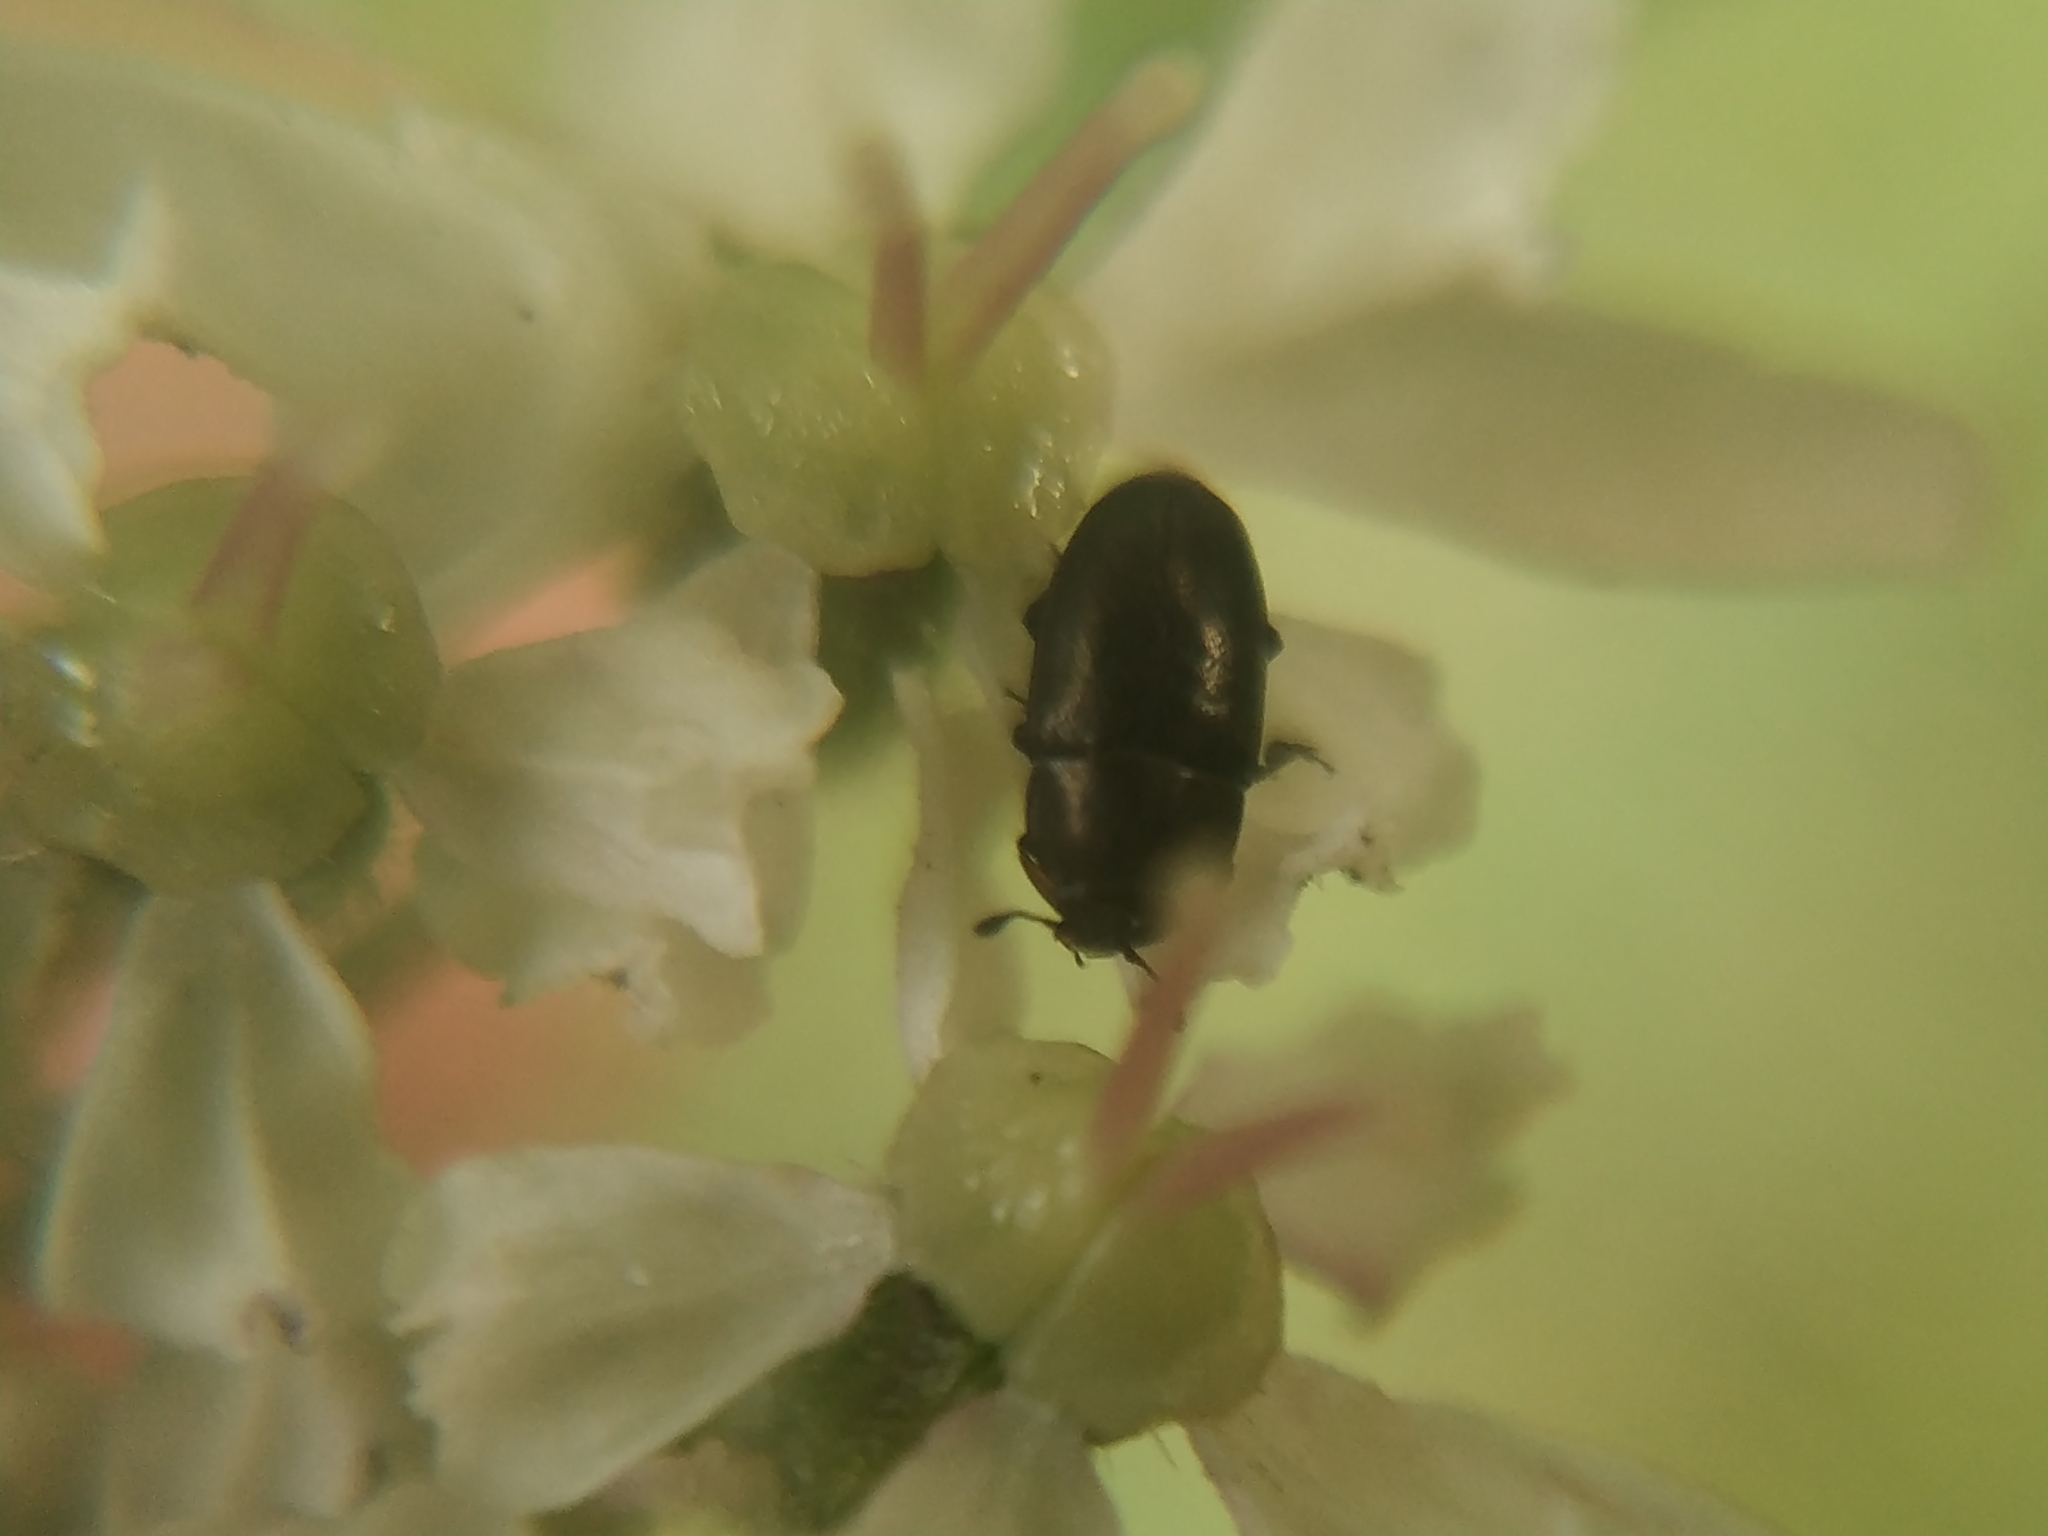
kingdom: Animalia
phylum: Arthropoda
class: Insecta
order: Coleoptera
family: Nitidulidae
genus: Brassicogethes
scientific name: Brassicogethes aeneus
